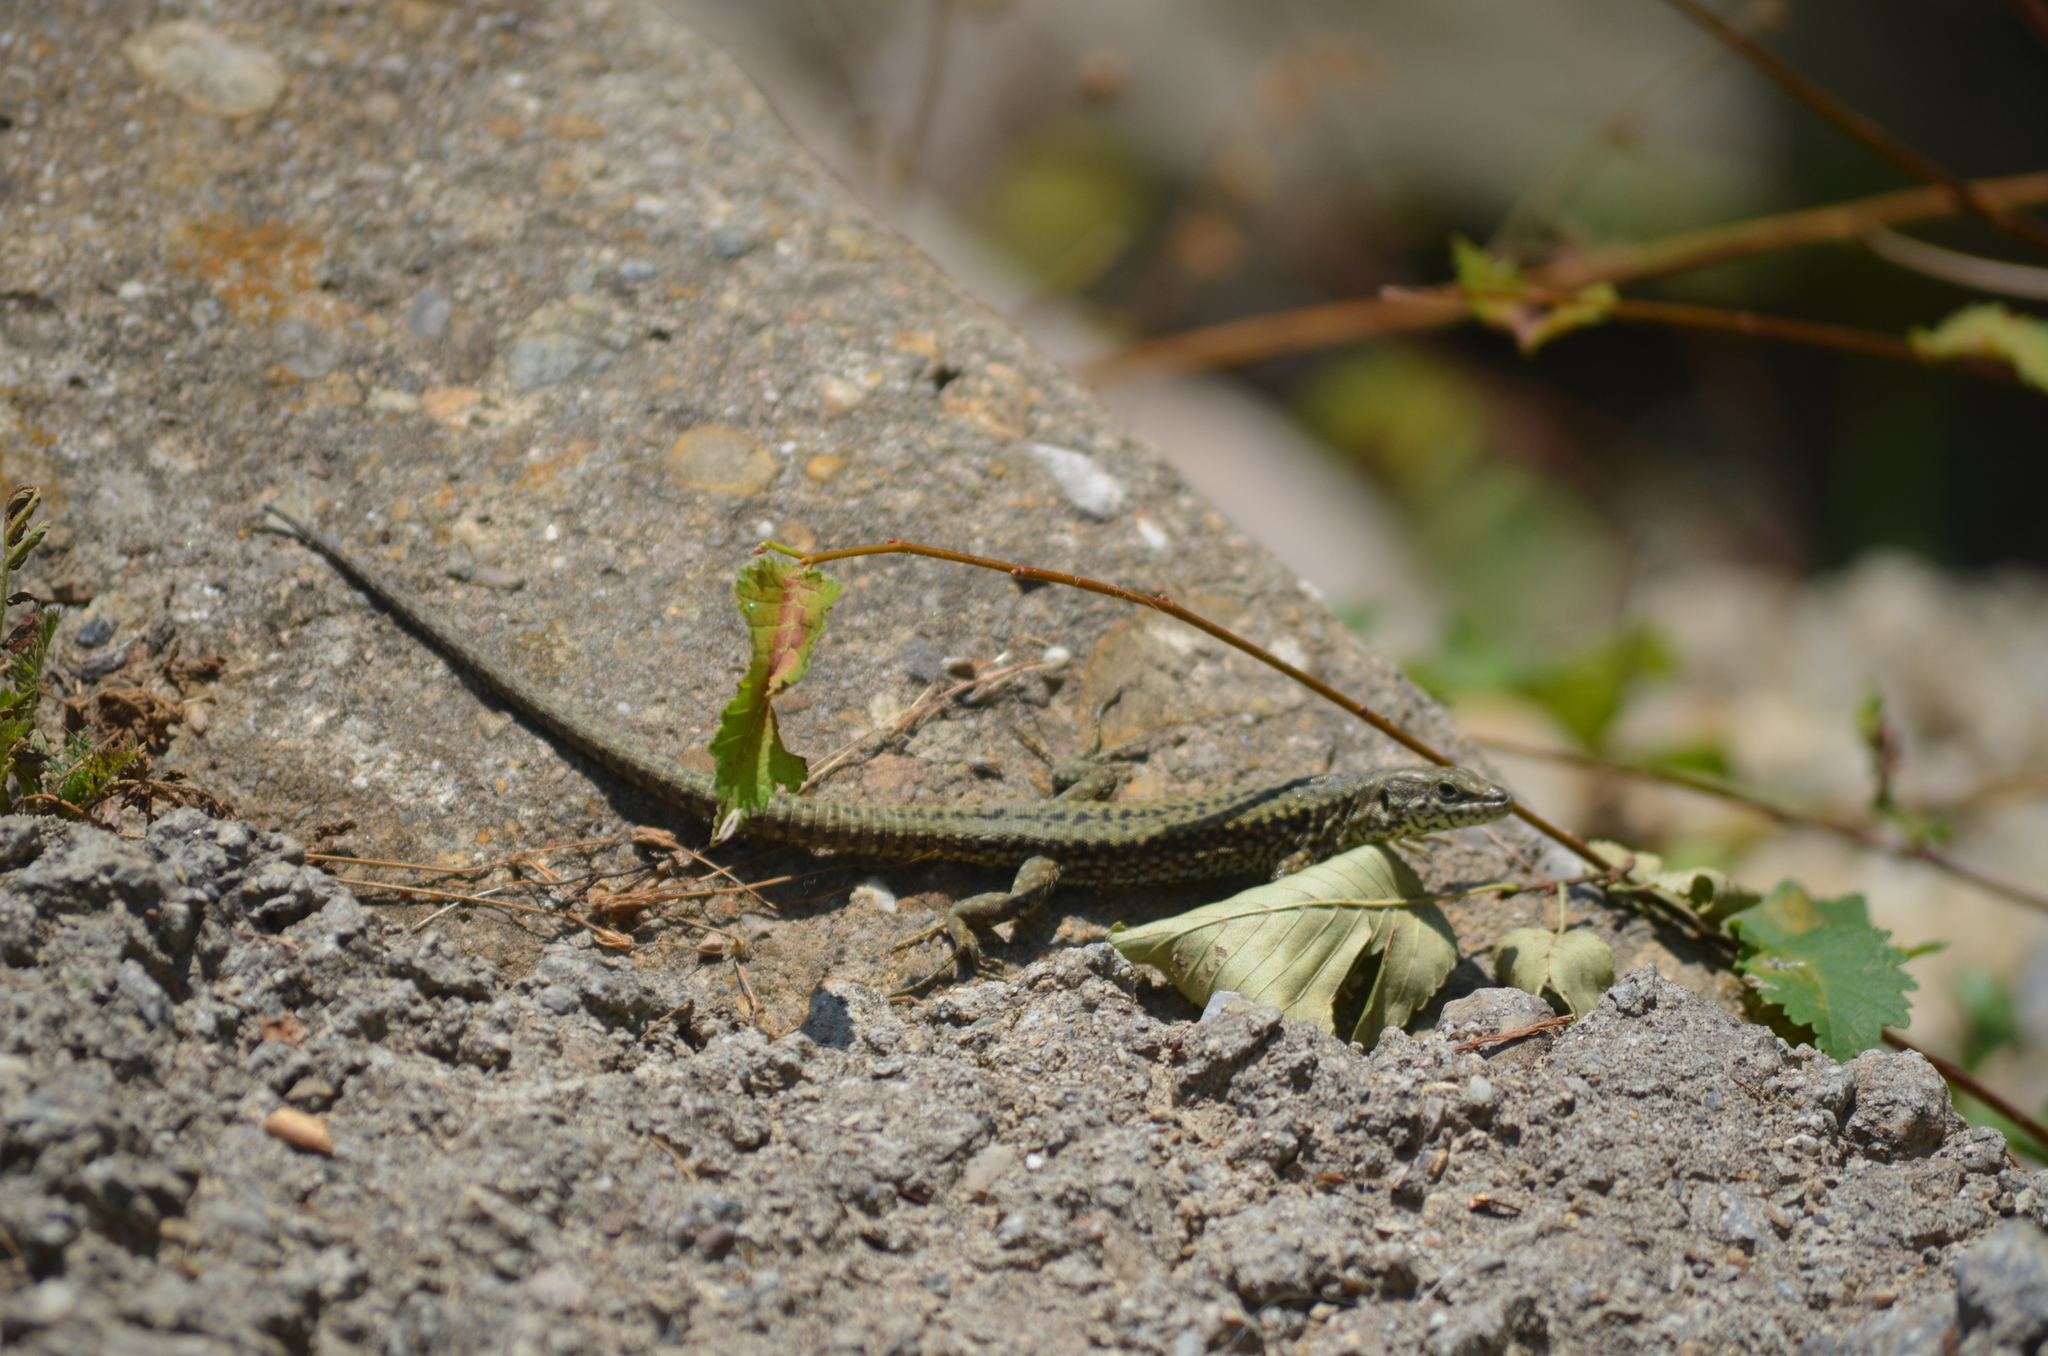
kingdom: Animalia
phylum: Chordata
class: Squamata
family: Lacertidae
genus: Podarcis
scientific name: Podarcis muralis
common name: Common wall lizard
